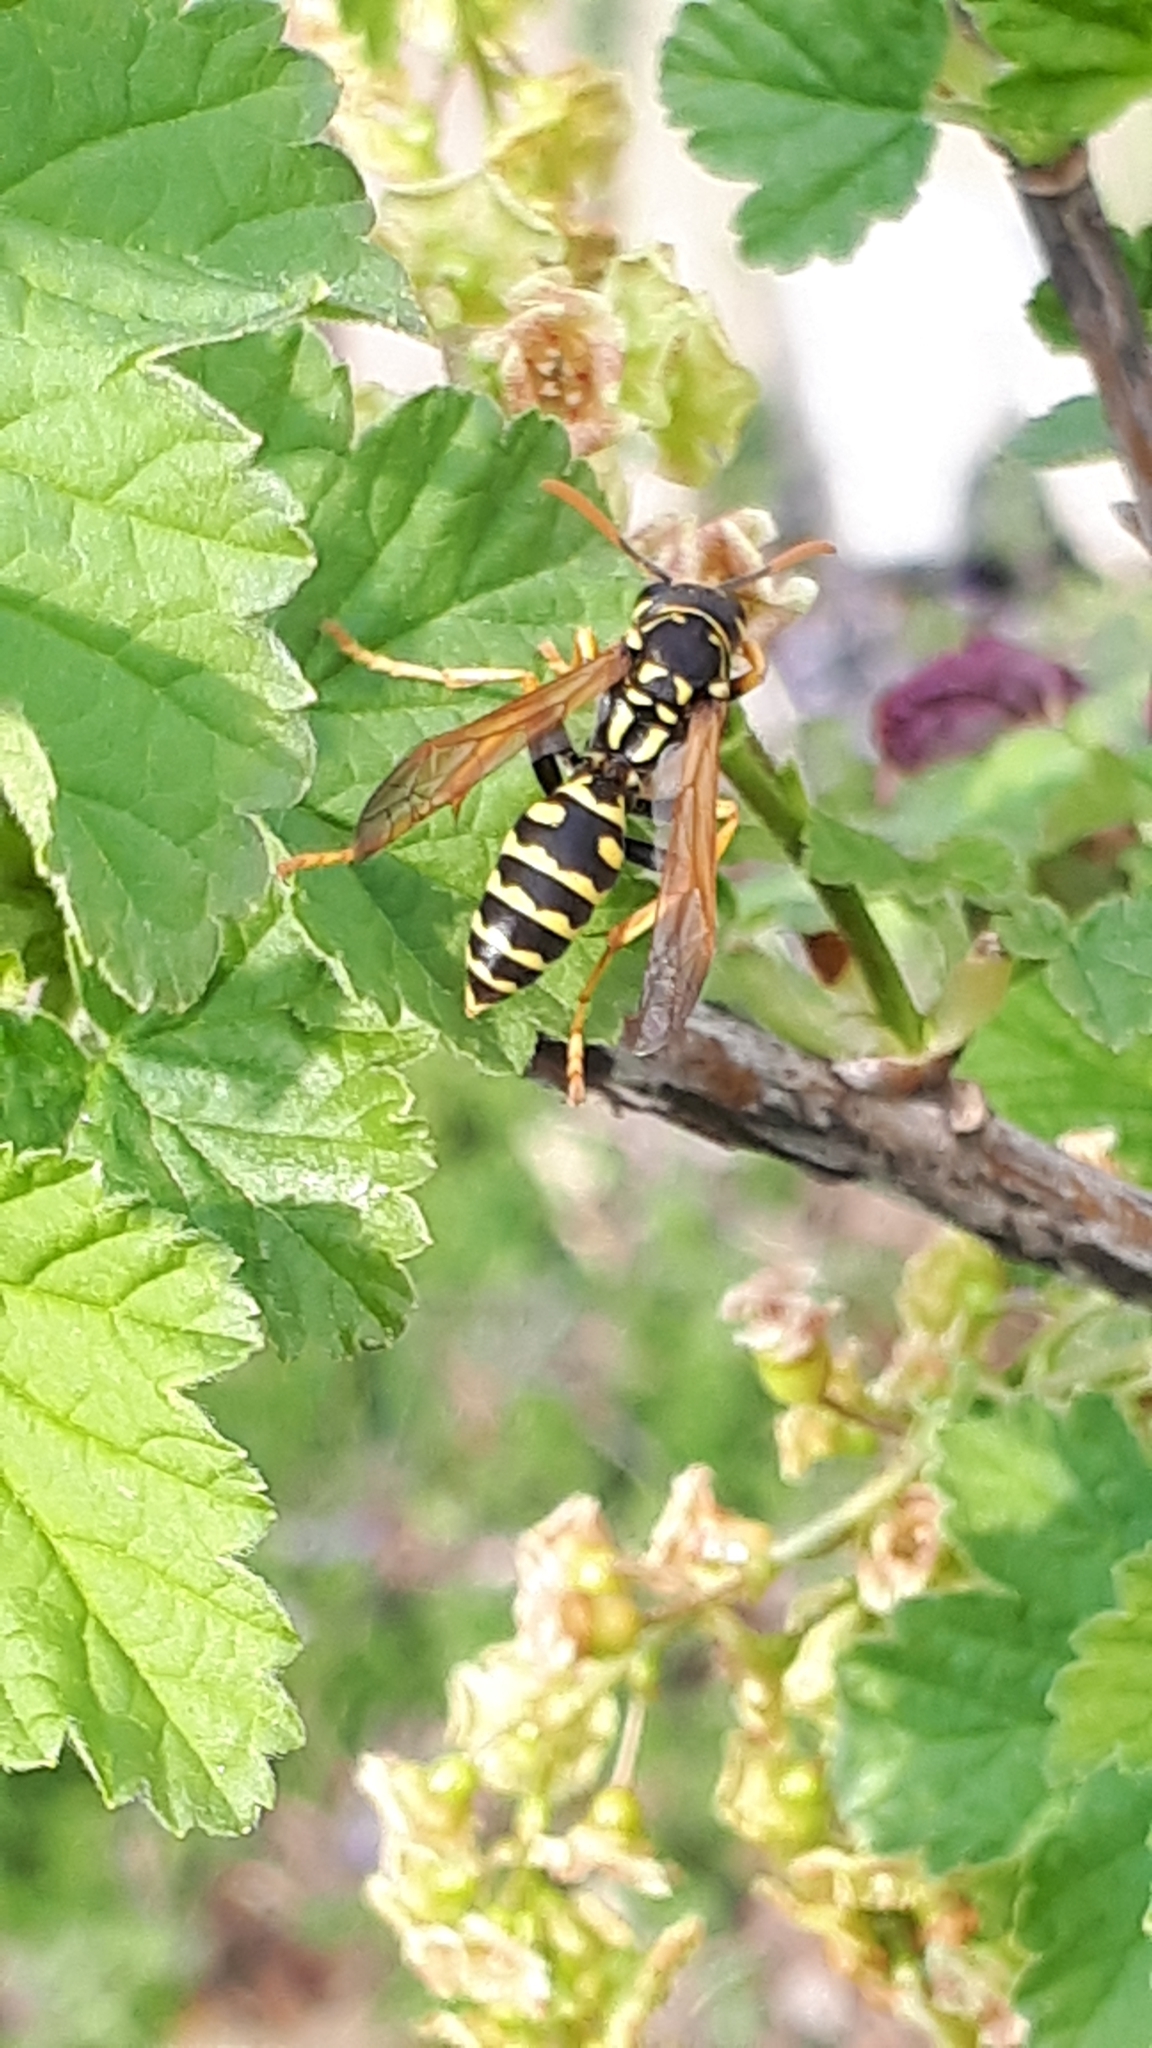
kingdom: Animalia
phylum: Arthropoda
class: Insecta
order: Hymenoptera
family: Eumenidae
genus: Polistes
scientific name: Polistes dominula
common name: Paper wasp
